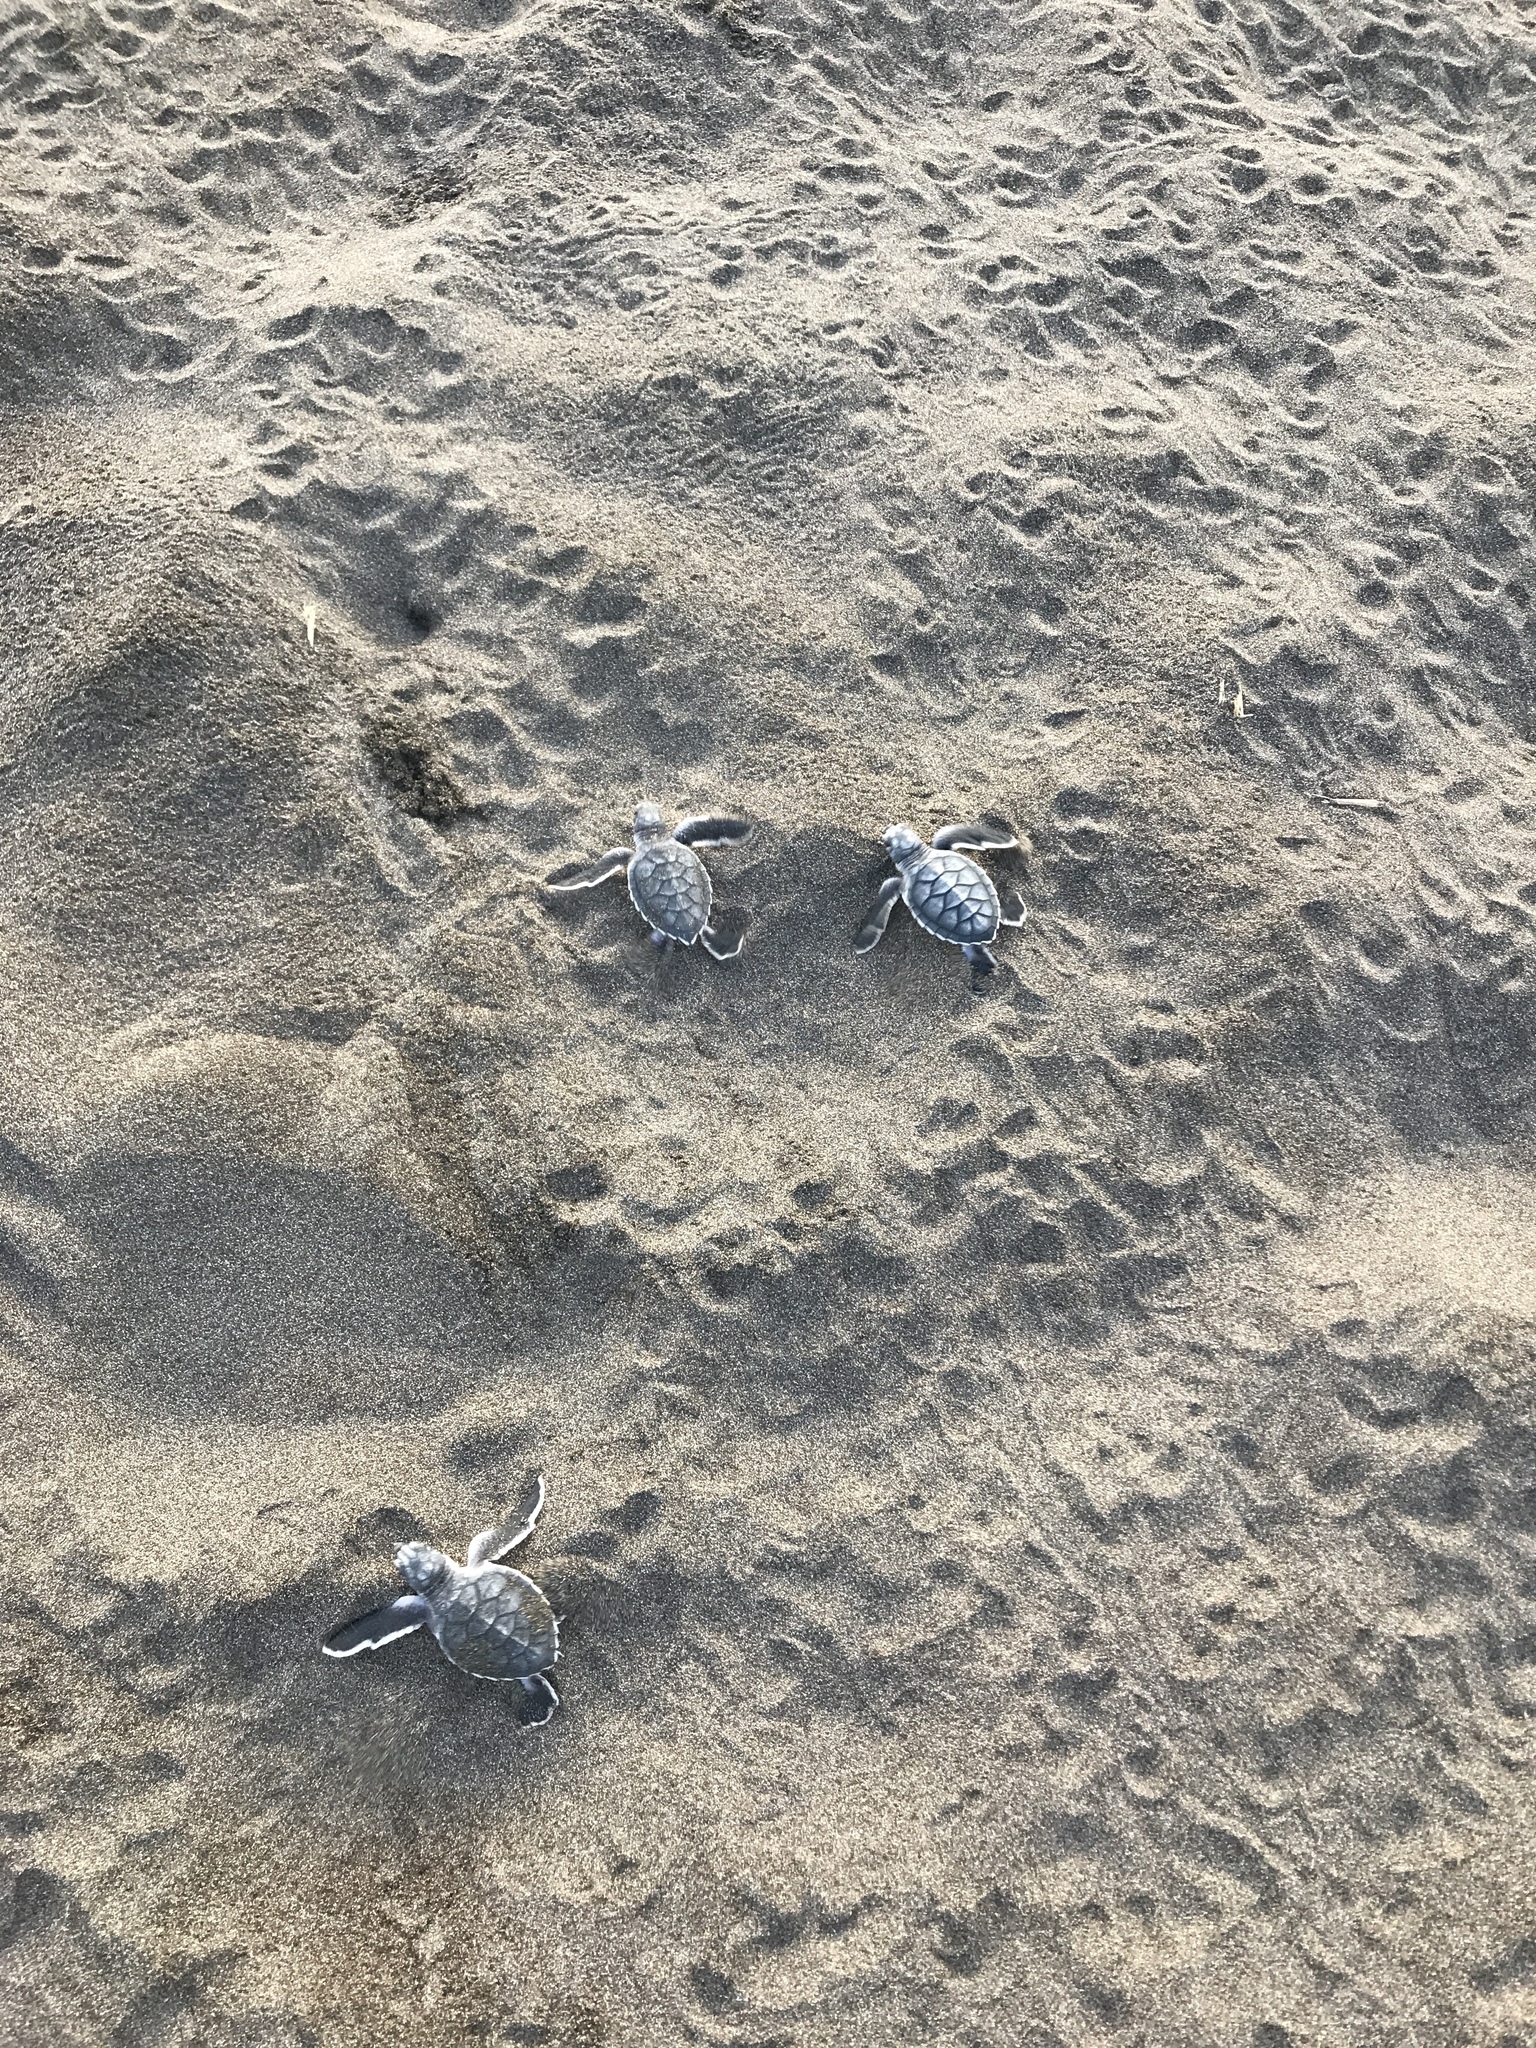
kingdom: Animalia
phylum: Chordata
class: Testudines
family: Cheloniidae
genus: Chelonia
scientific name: Chelonia mydas
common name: Green turtle
